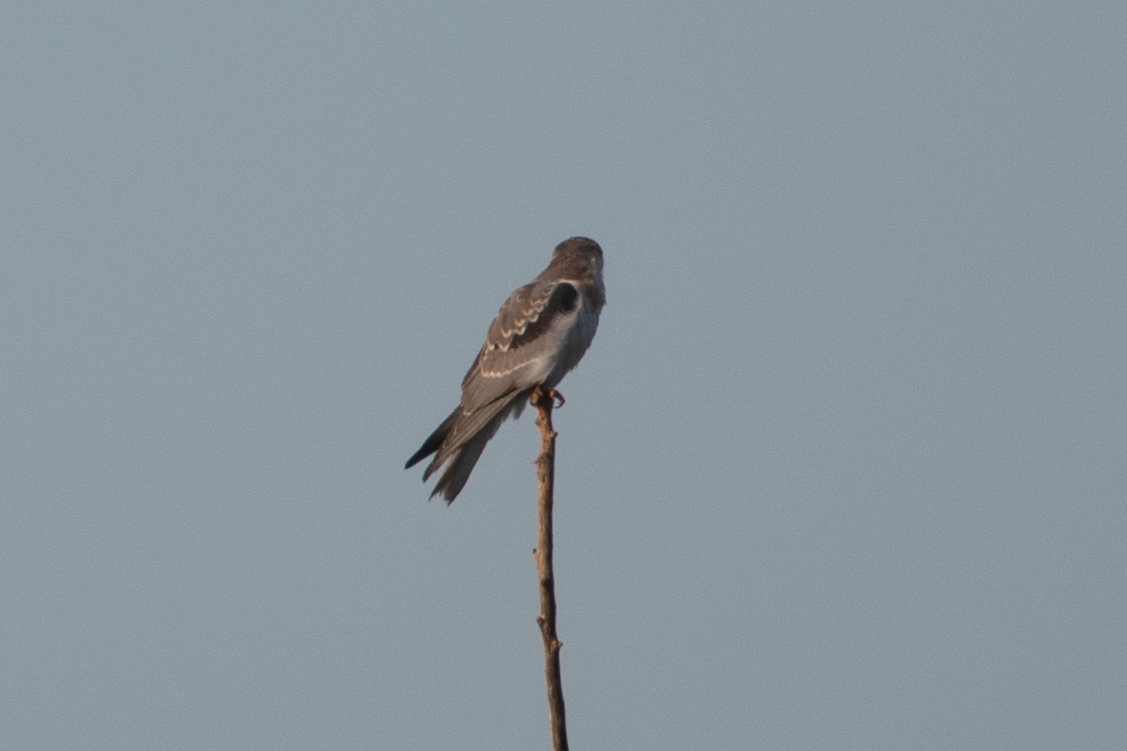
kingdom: Animalia
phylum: Chordata
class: Aves
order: Accipitriformes
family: Accipitridae
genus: Elanus
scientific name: Elanus leucurus
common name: White-tailed kite
